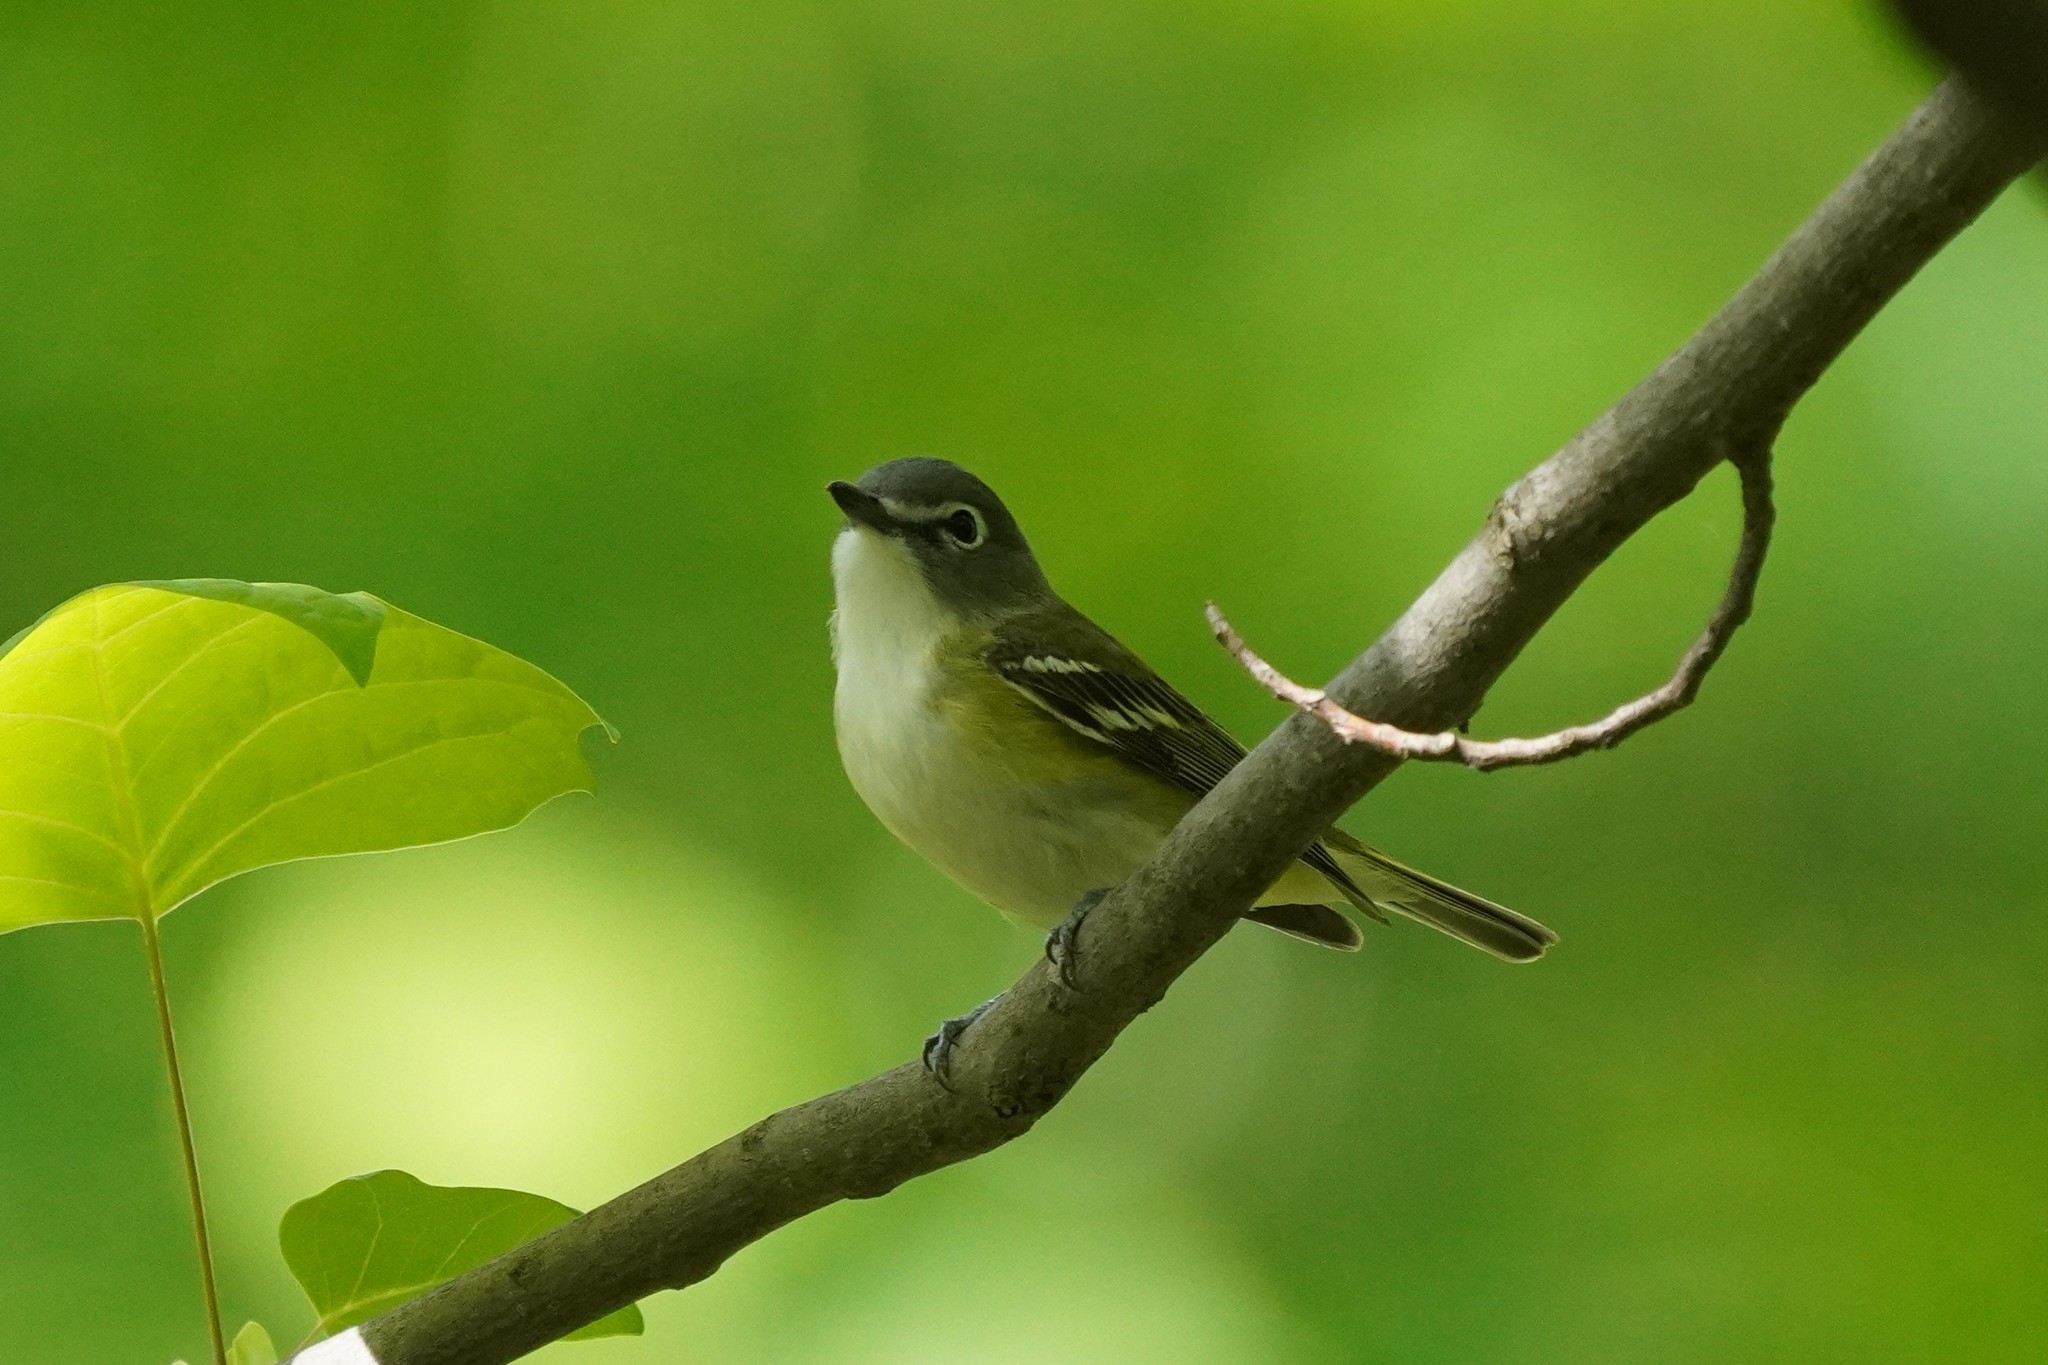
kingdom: Animalia
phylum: Chordata
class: Aves
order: Passeriformes
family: Vireonidae
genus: Vireo
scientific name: Vireo solitarius
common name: Blue-headed vireo
